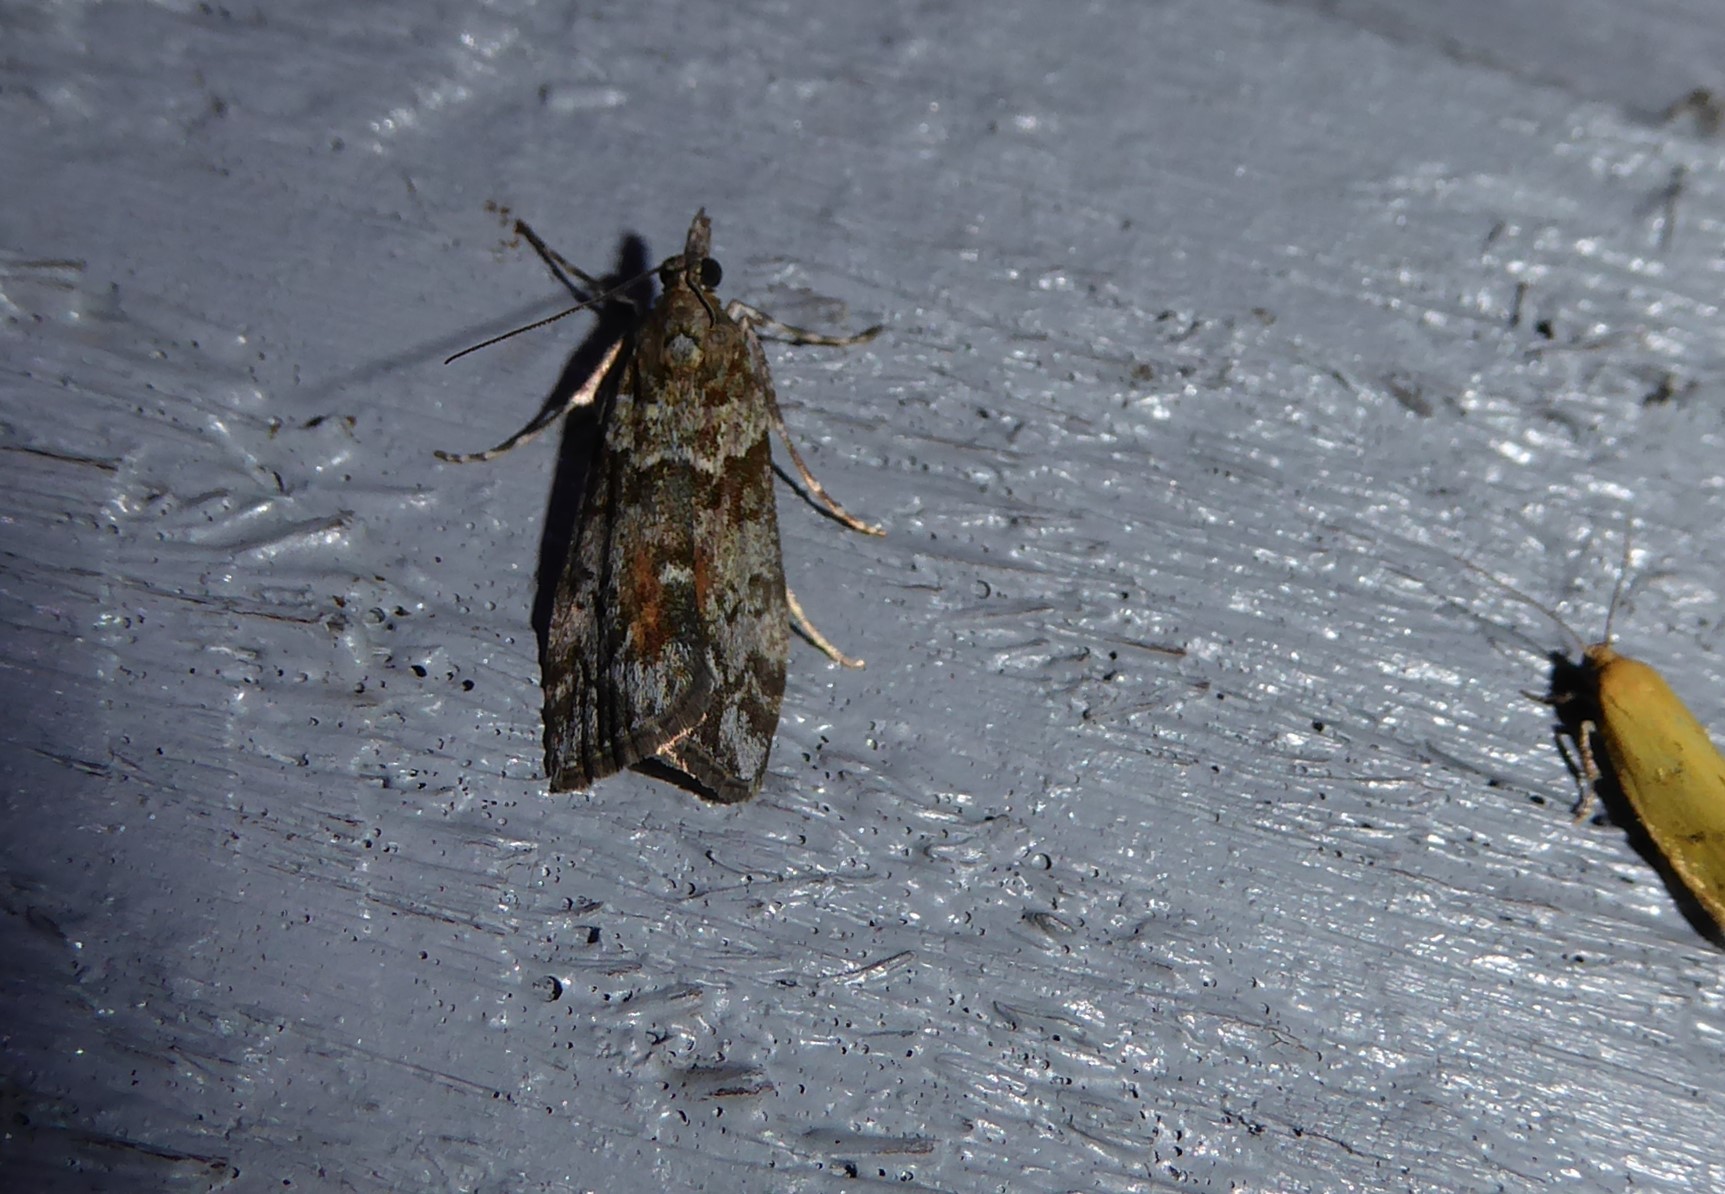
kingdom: Animalia
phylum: Arthropoda
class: Insecta
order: Lepidoptera
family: Crambidae
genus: Eudonia
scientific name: Eudonia submarginalis
